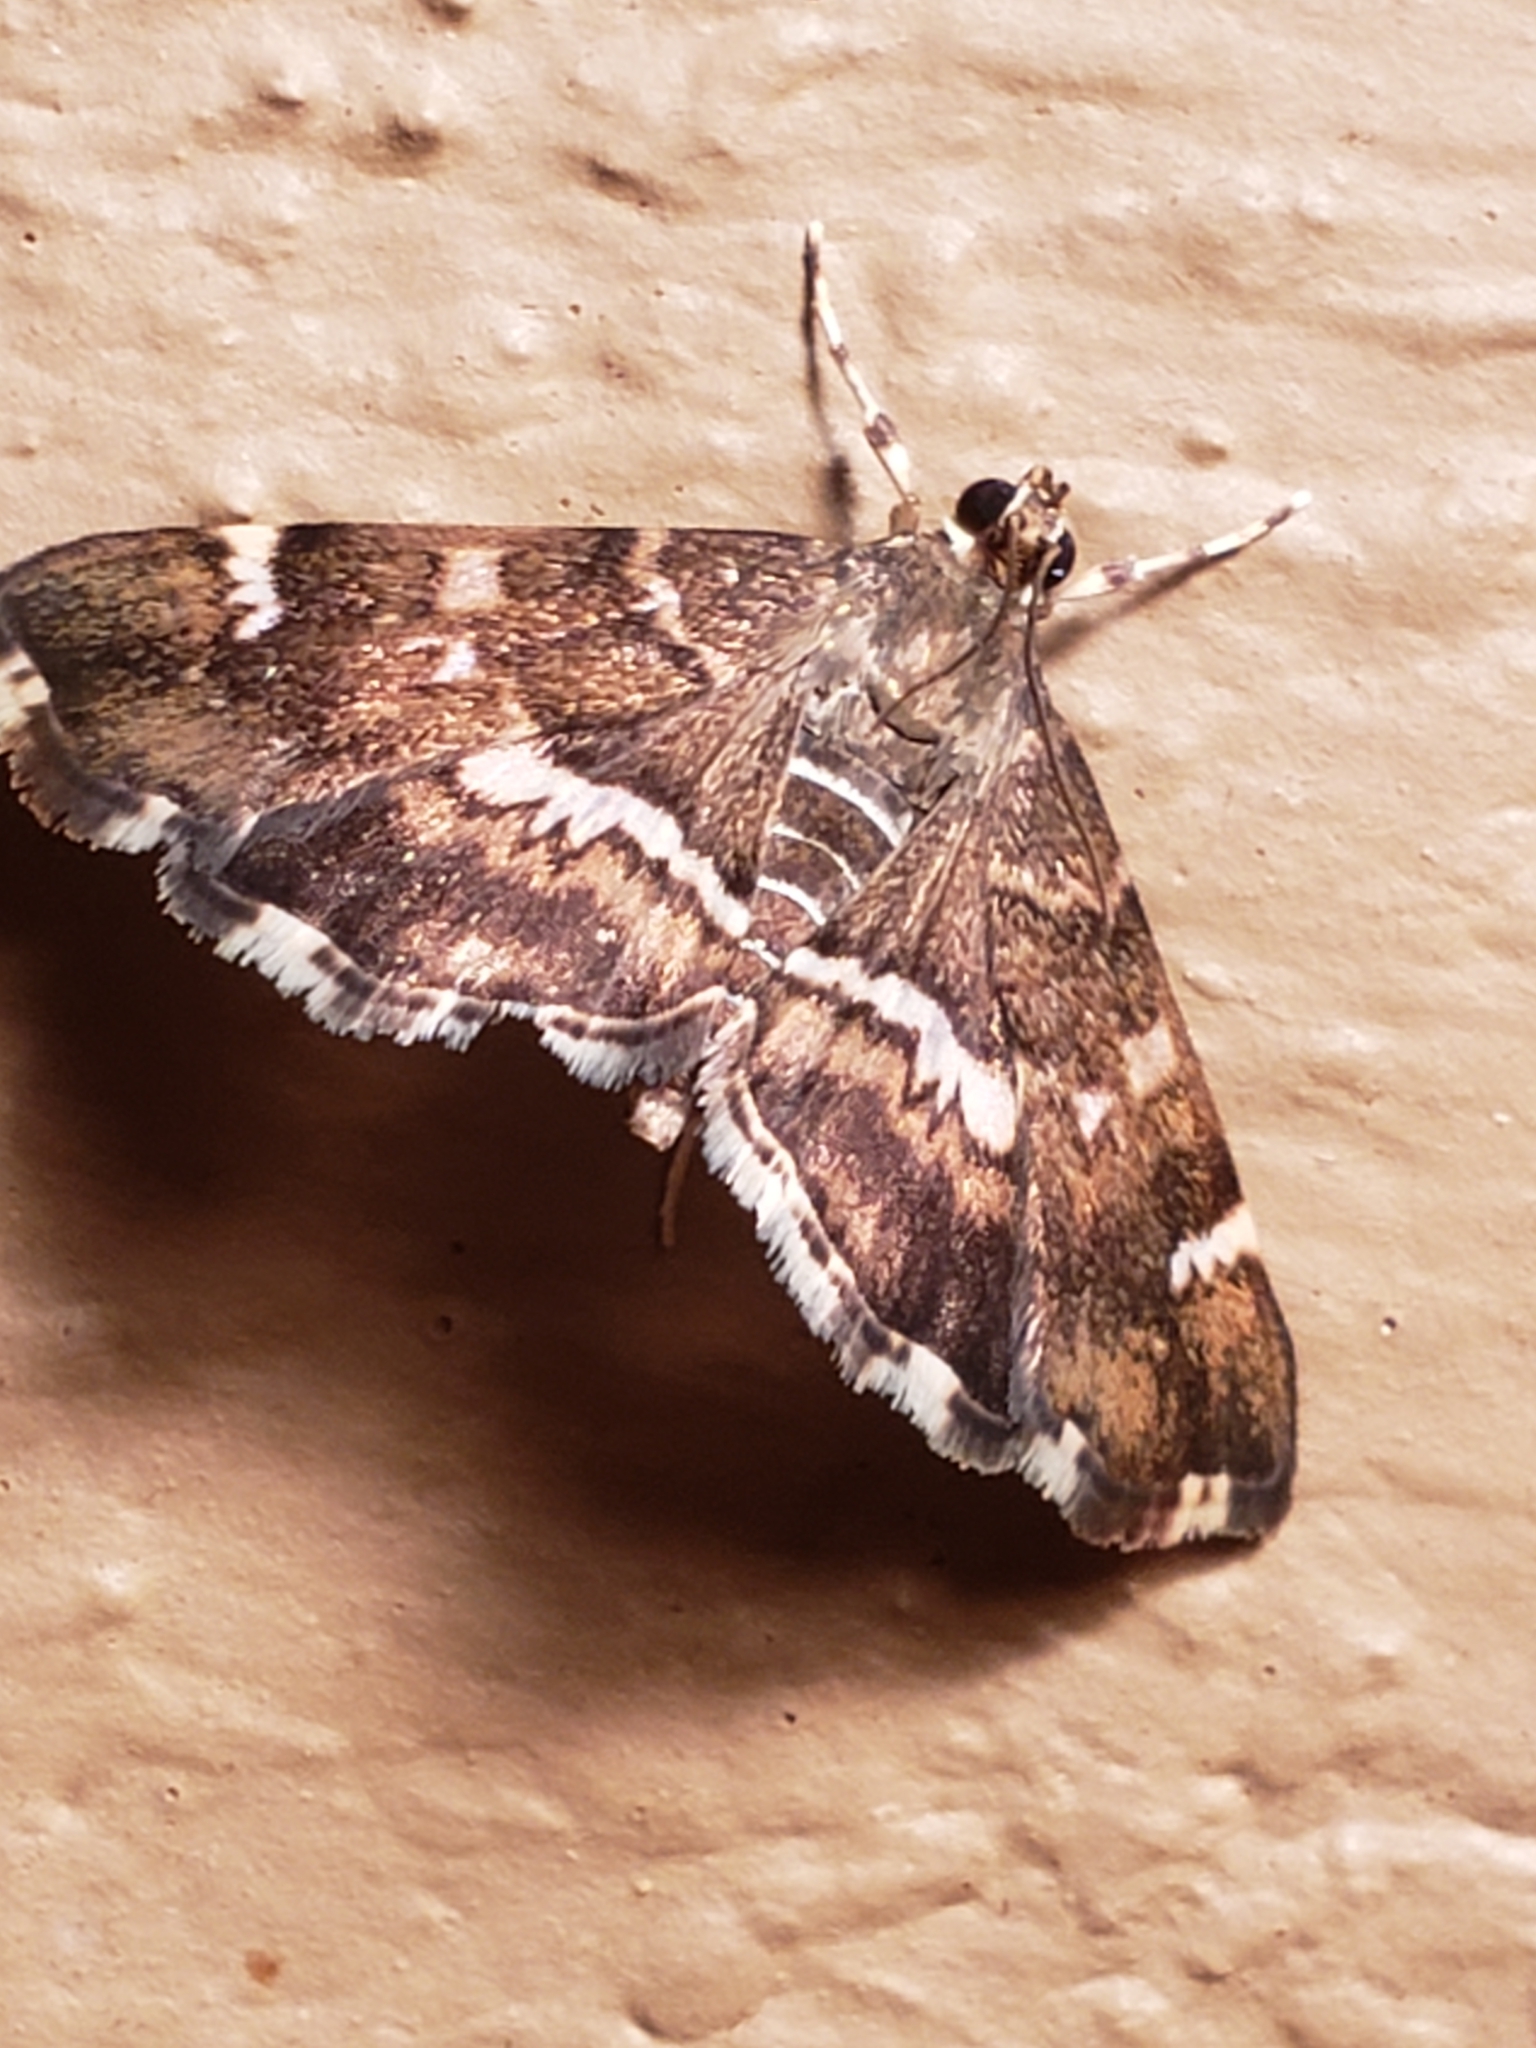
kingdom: Animalia
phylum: Arthropoda
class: Insecta
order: Lepidoptera
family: Crambidae
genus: Hymenia
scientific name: Hymenia perspectalis
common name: Spotted beet webworm
